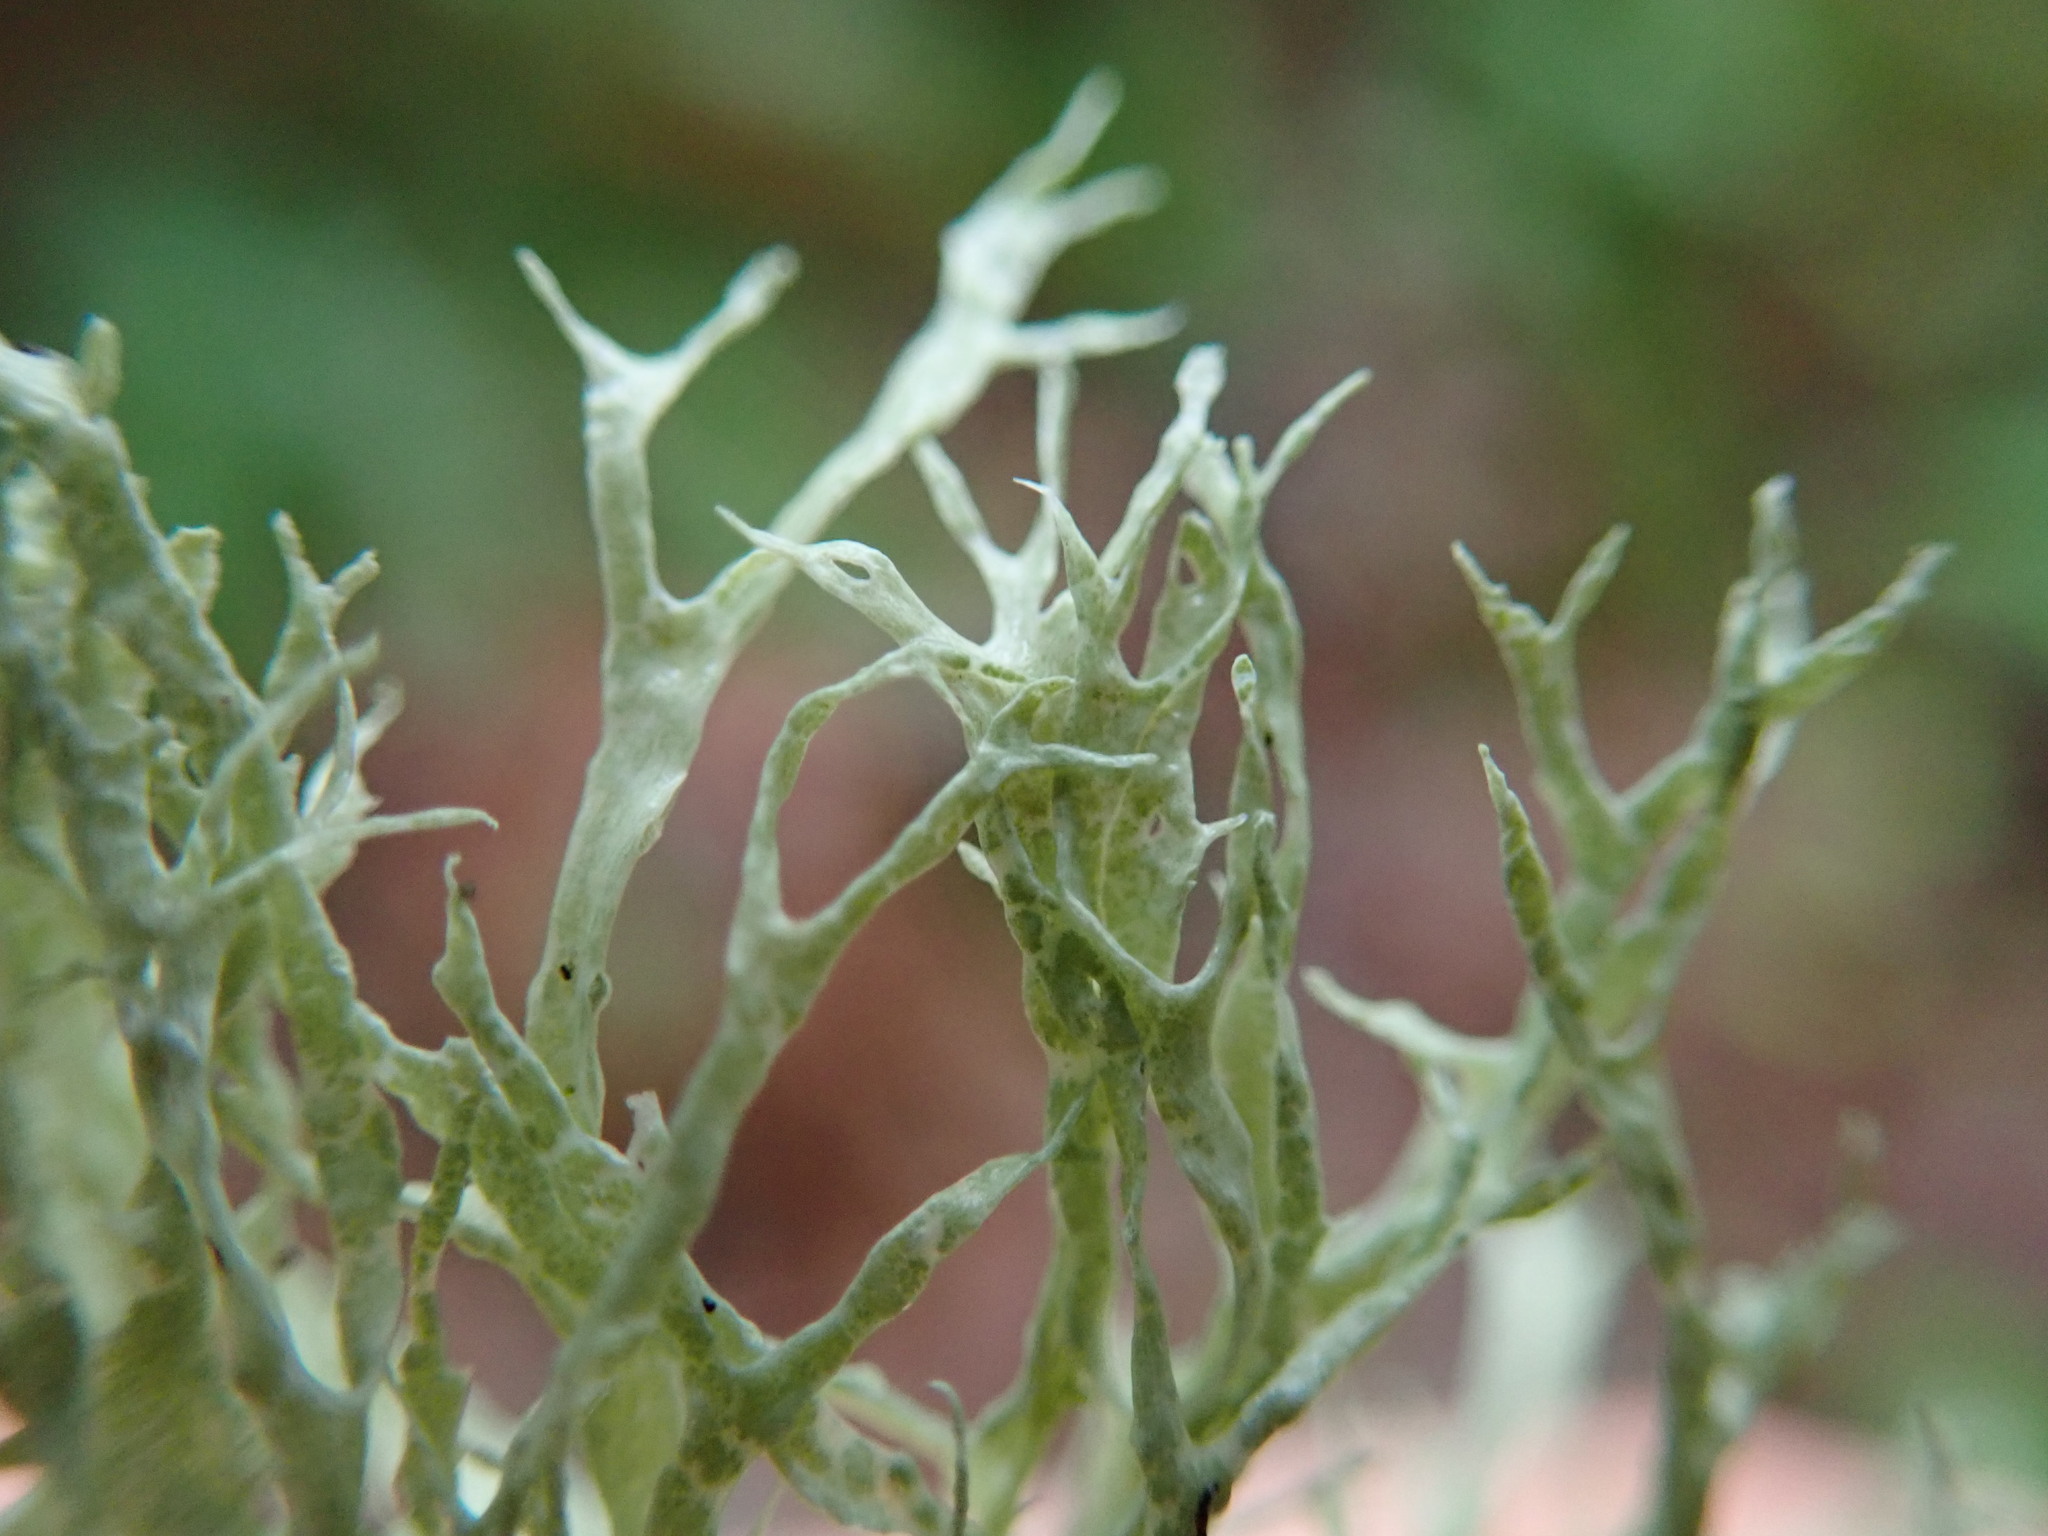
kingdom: Fungi
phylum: Ascomycota
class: Lecanoromycetes
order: Lecanorales
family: Ramalinaceae
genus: Ramalina
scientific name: Ramalina farinacea
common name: Farinose cartilage lichen
